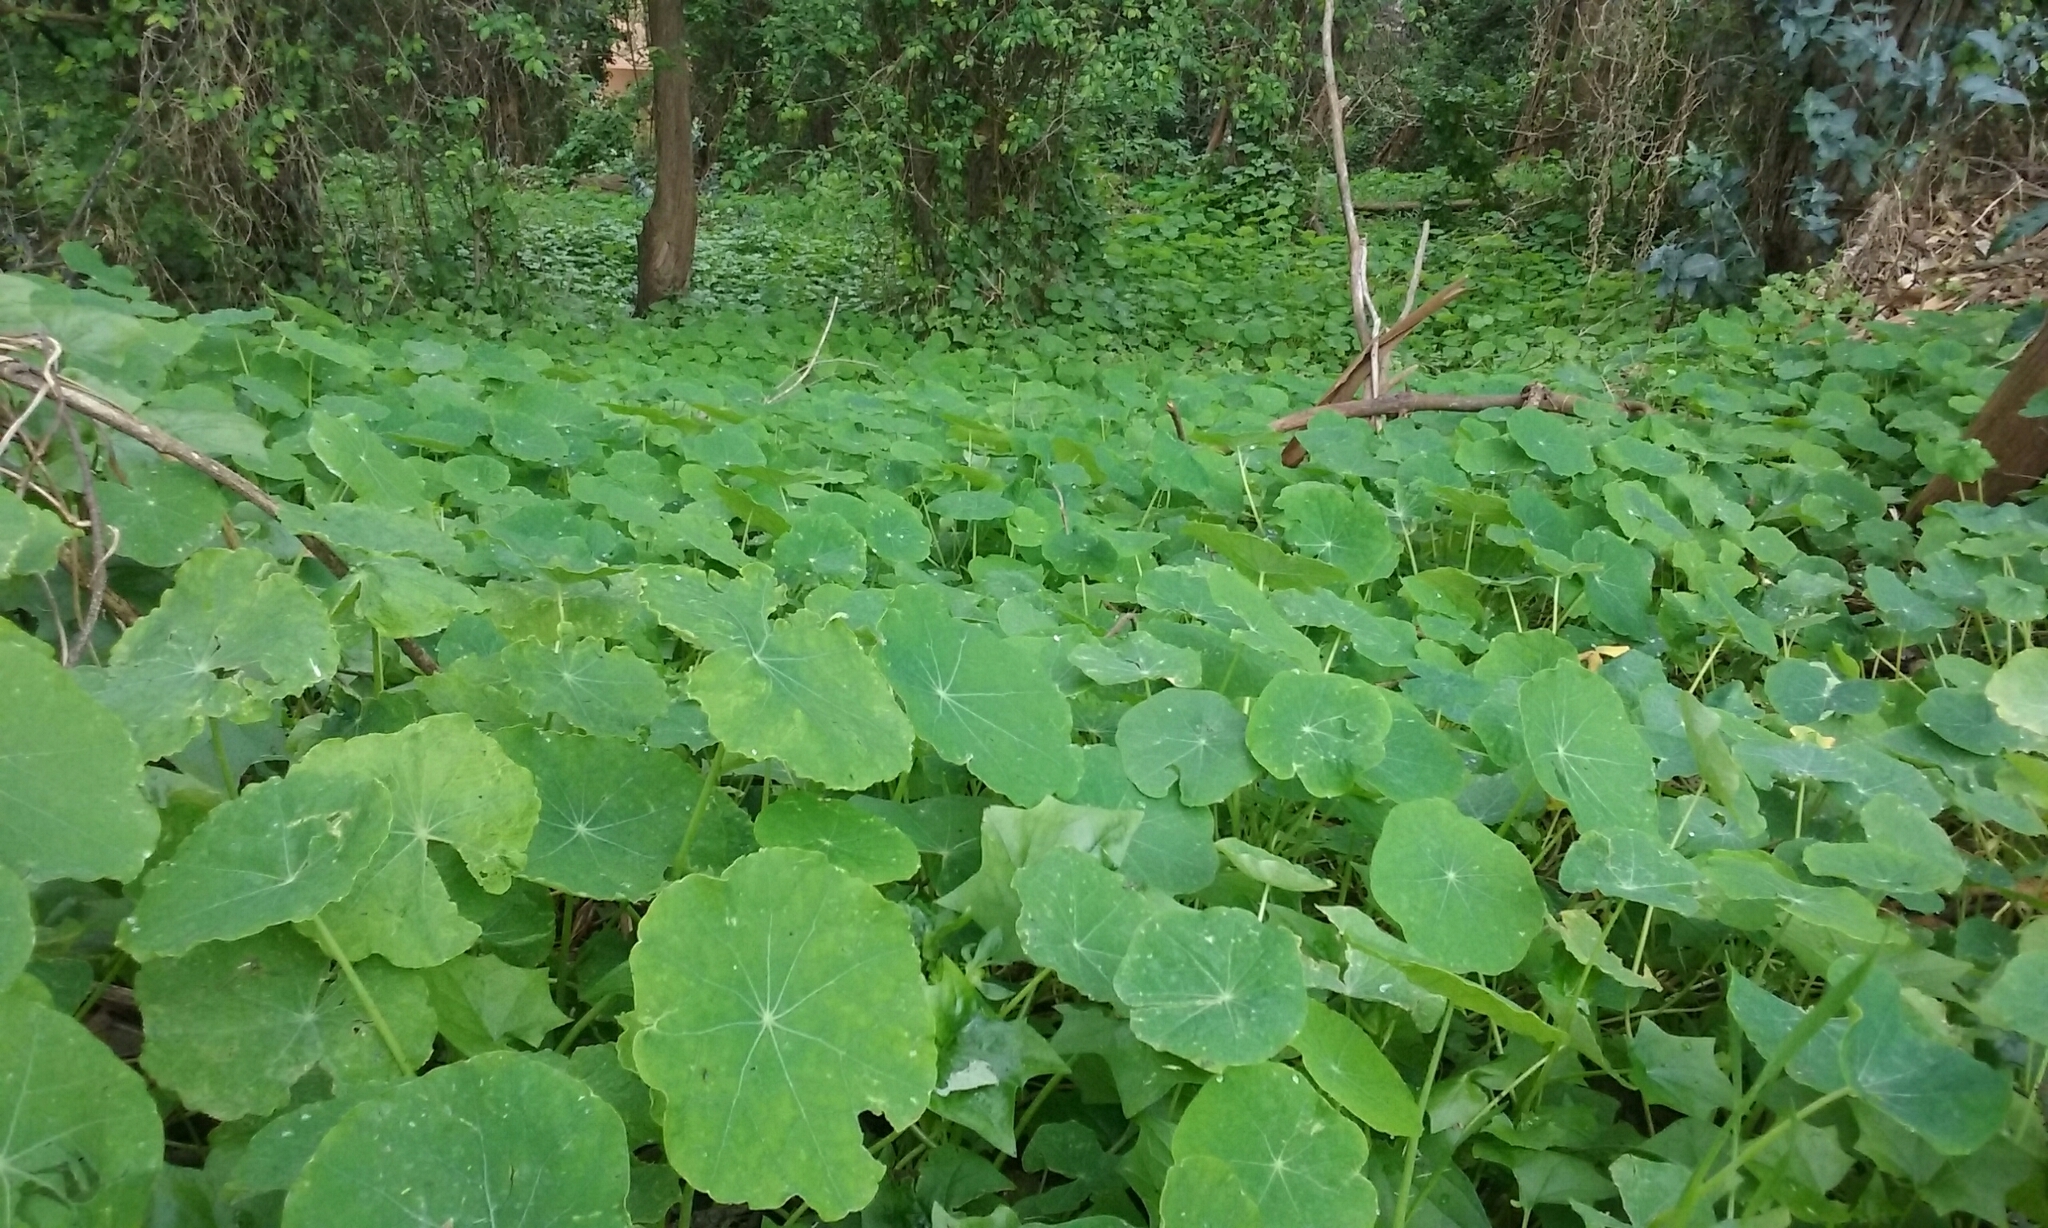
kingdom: Plantae
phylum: Tracheophyta
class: Magnoliopsida
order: Brassicales
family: Tropaeolaceae
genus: Tropaeolum
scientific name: Tropaeolum majus
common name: Nasturtium
